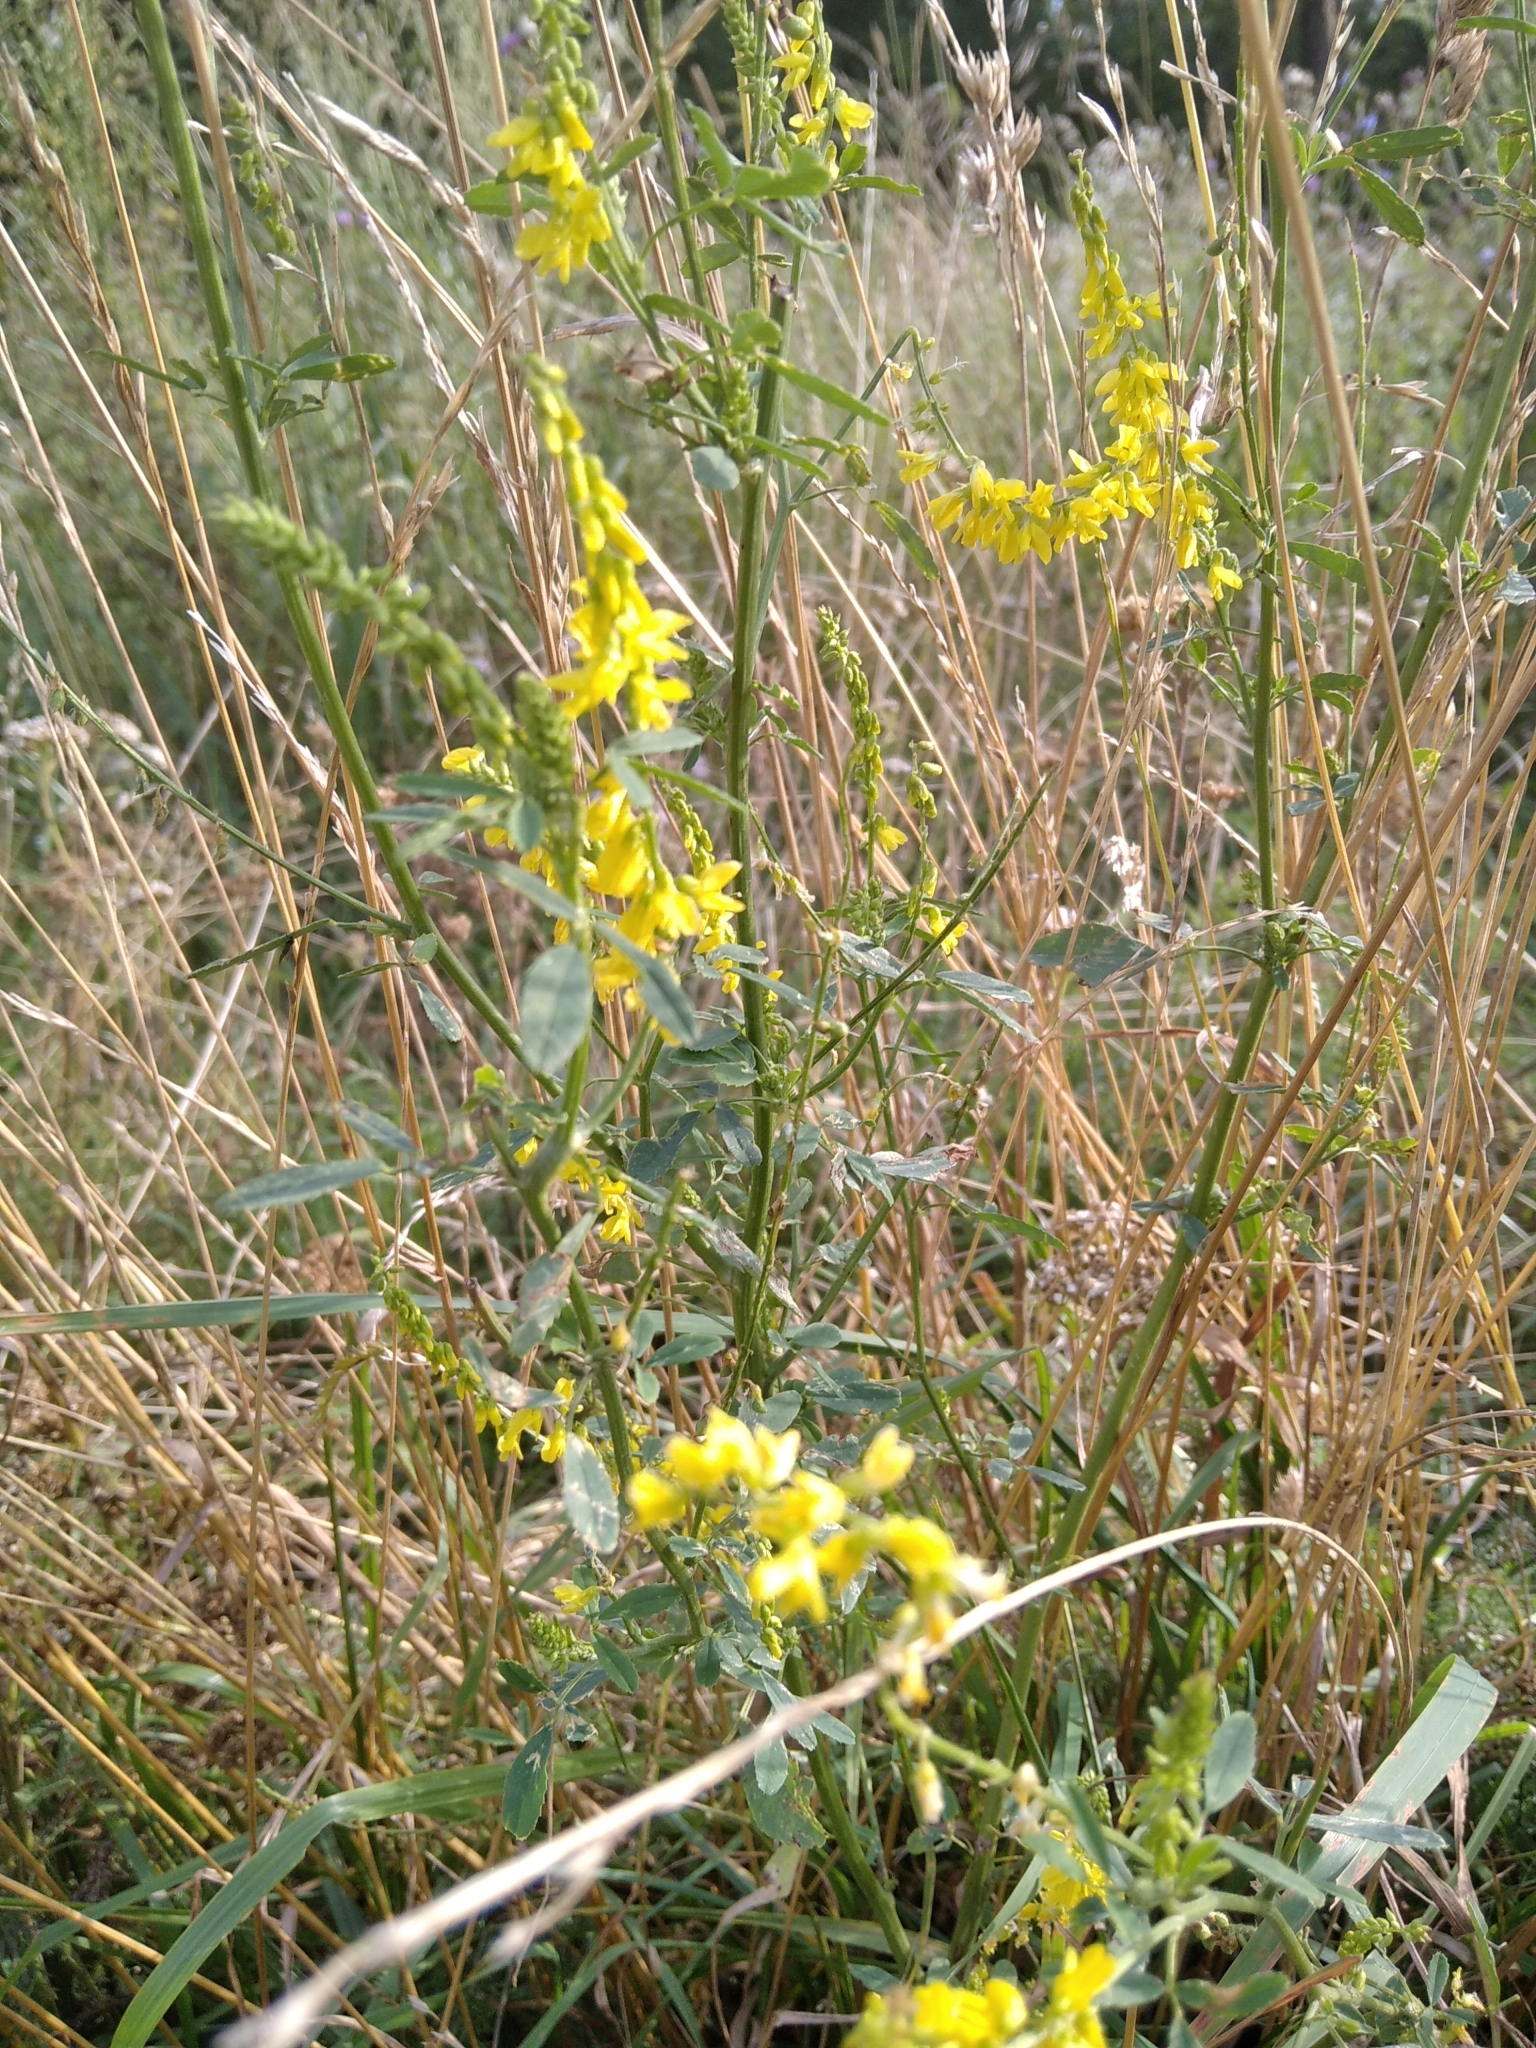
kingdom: Plantae
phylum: Tracheophyta
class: Magnoliopsida
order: Fabales
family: Fabaceae
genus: Melilotus
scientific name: Melilotus officinalis
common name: Sweetclover
